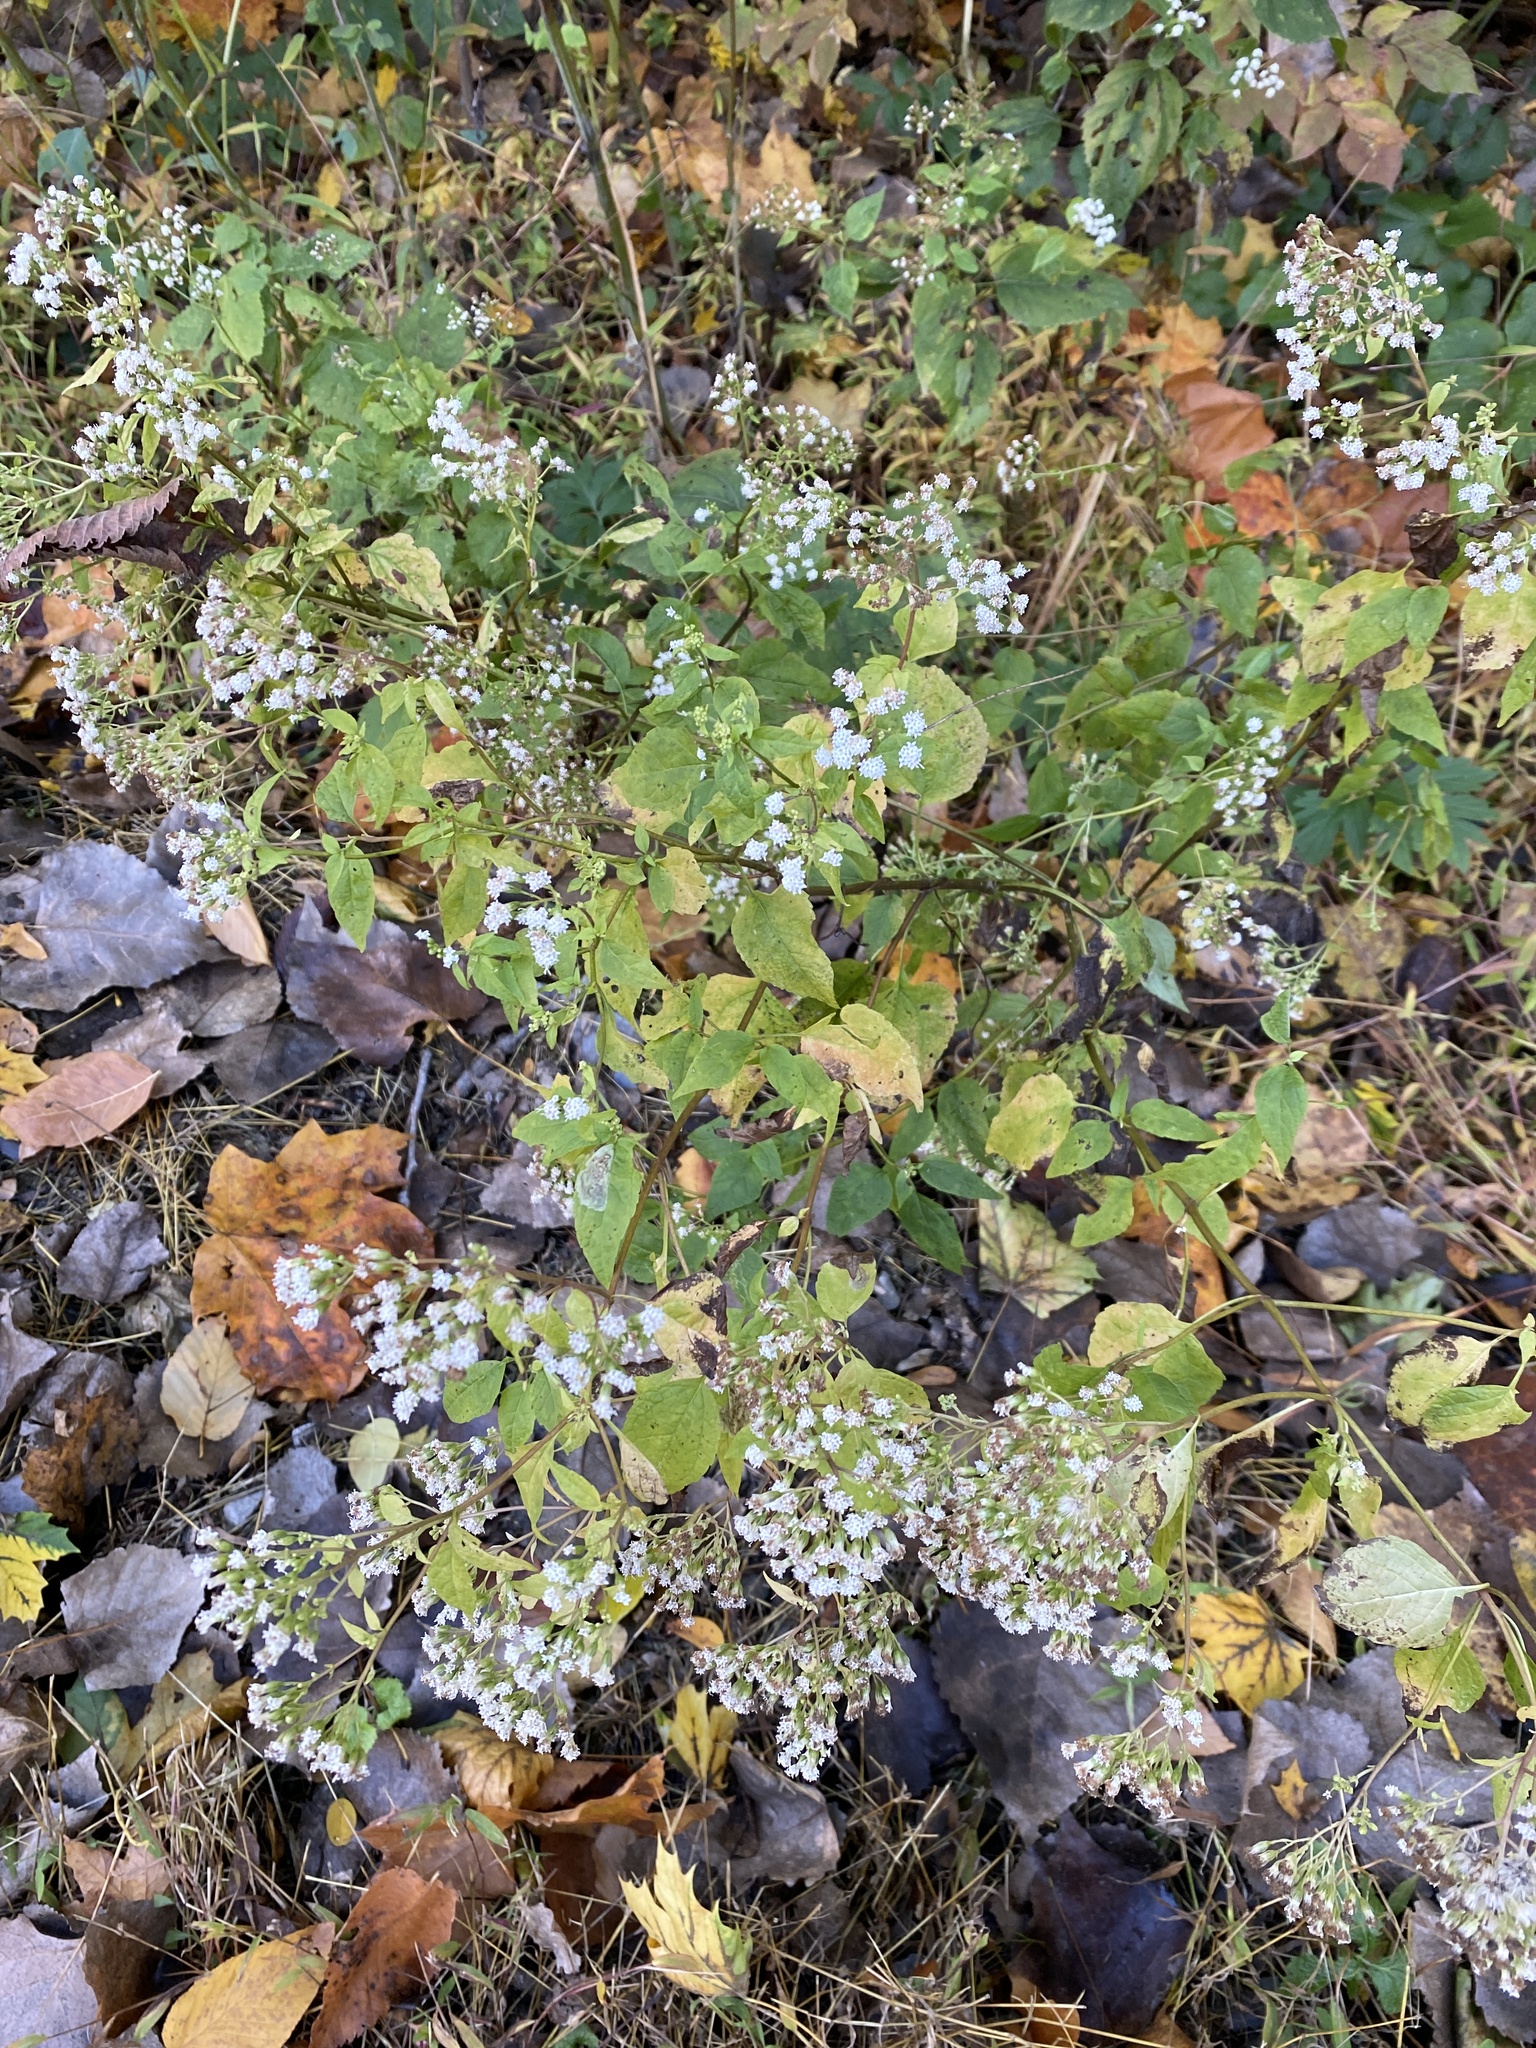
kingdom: Plantae
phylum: Tracheophyta
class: Magnoliopsida
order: Asterales
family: Asteraceae
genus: Ageratina
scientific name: Ageratina altissima
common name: White snakeroot
